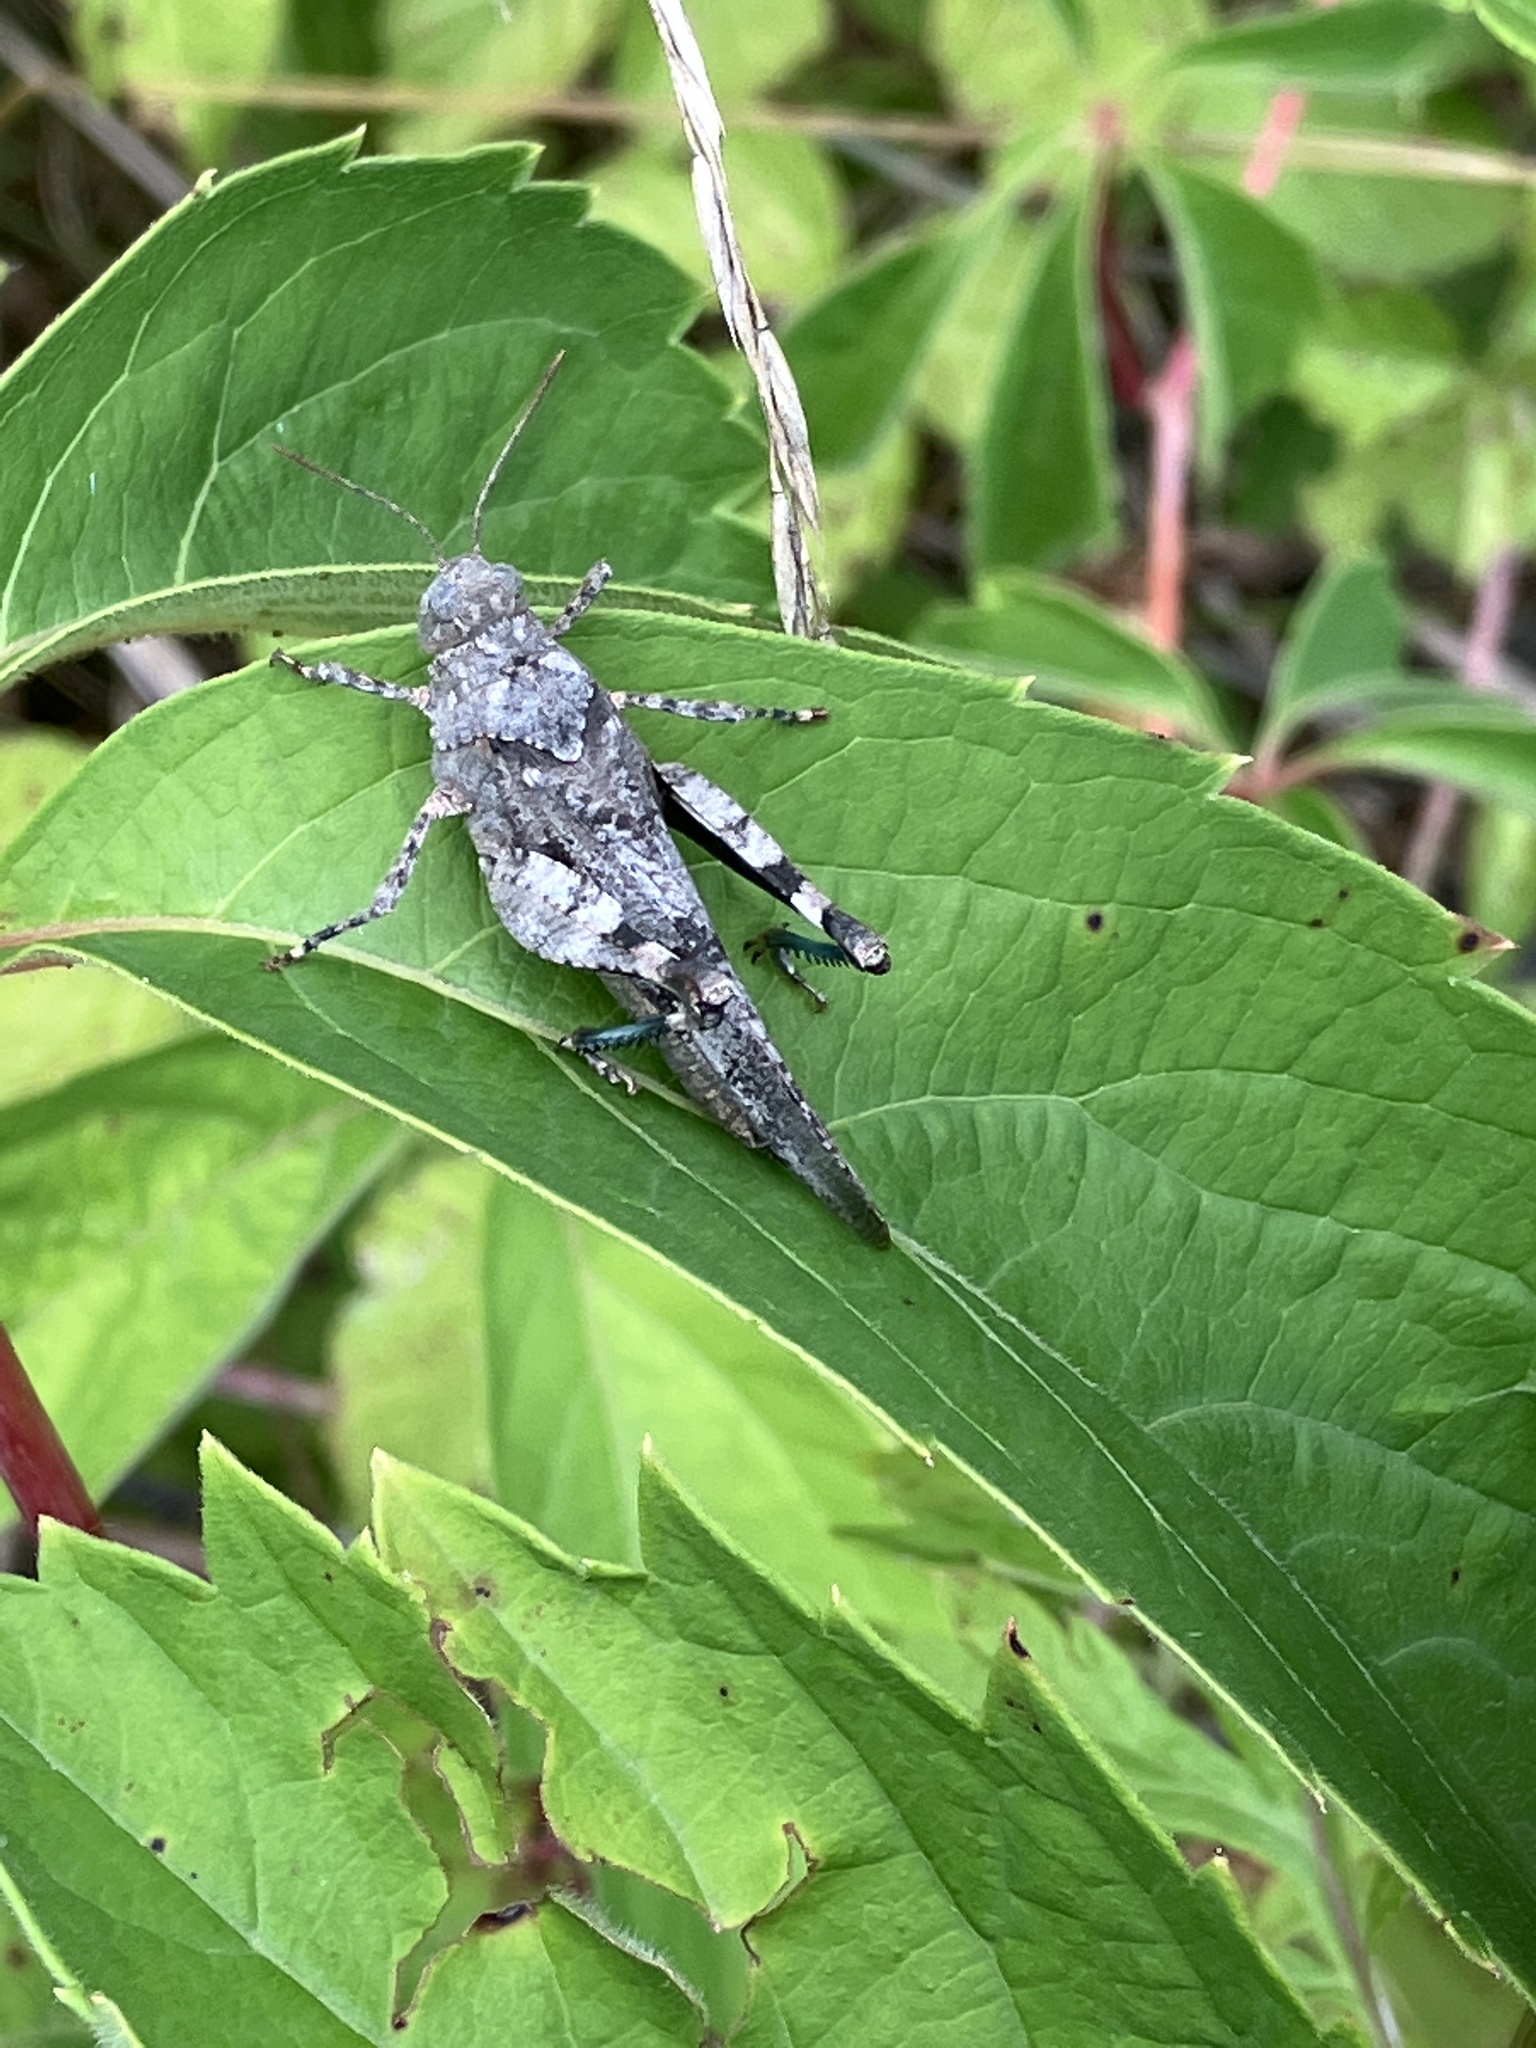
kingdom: Animalia
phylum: Arthropoda
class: Insecta
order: Orthoptera
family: Acrididae
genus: Oedipoda
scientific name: Oedipoda caerulescens
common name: Blue-winged grasshopper
